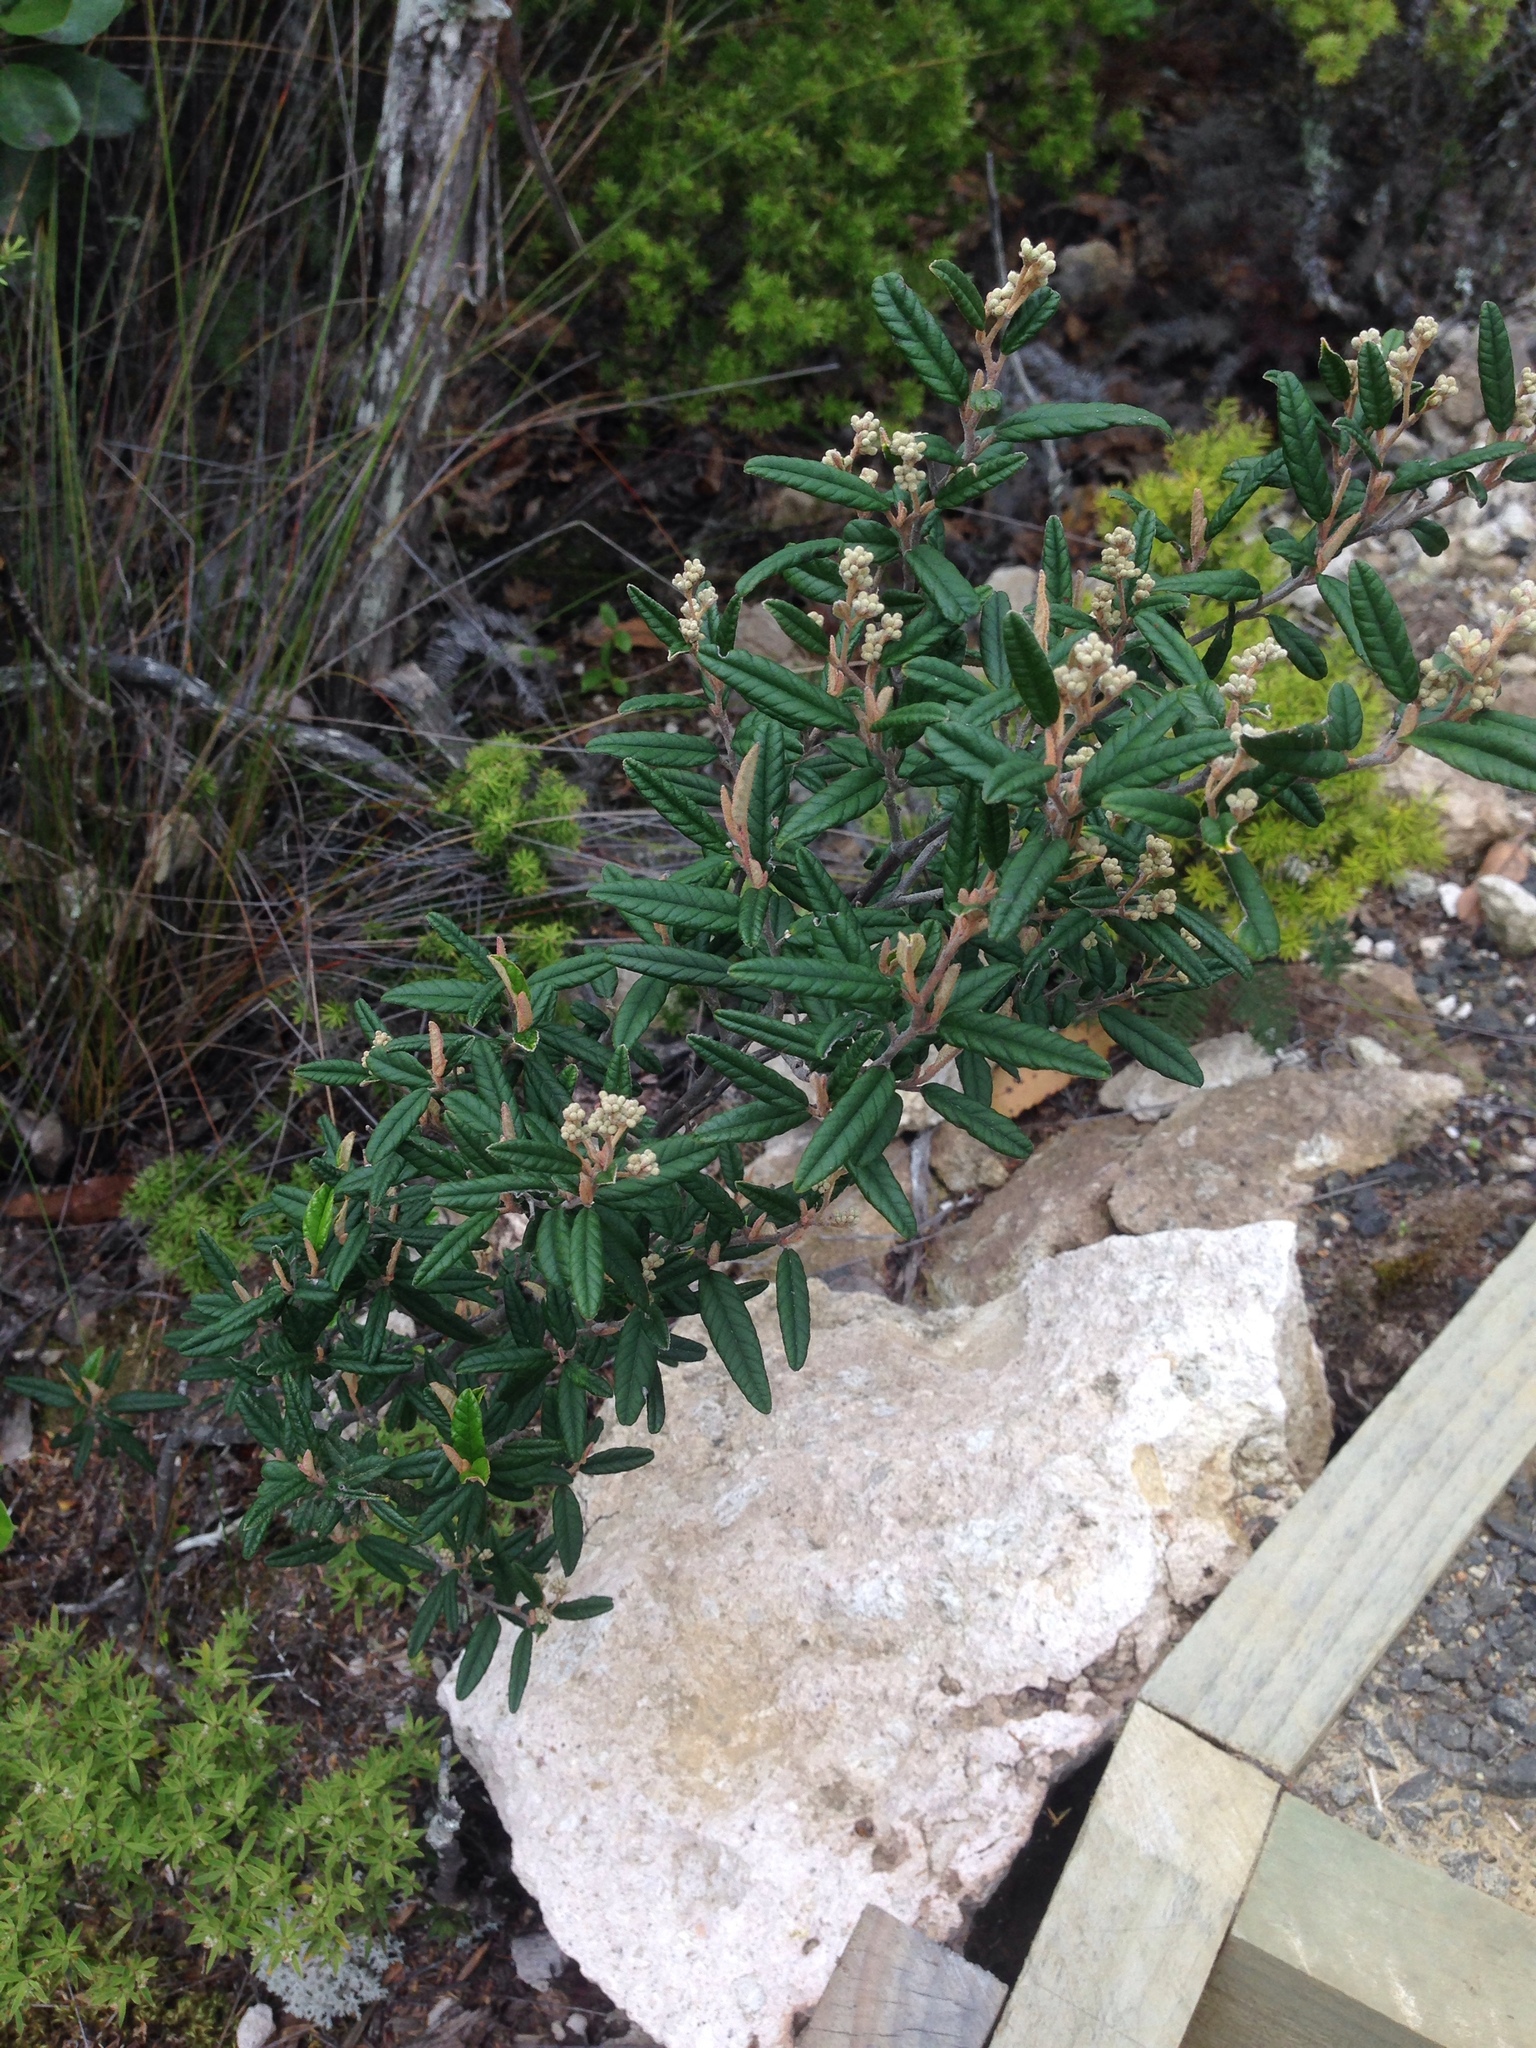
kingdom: Plantae
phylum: Tracheophyta
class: Magnoliopsida
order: Rosales
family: Rhamnaceae
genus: Pomaderris
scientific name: Pomaderris rugosa
